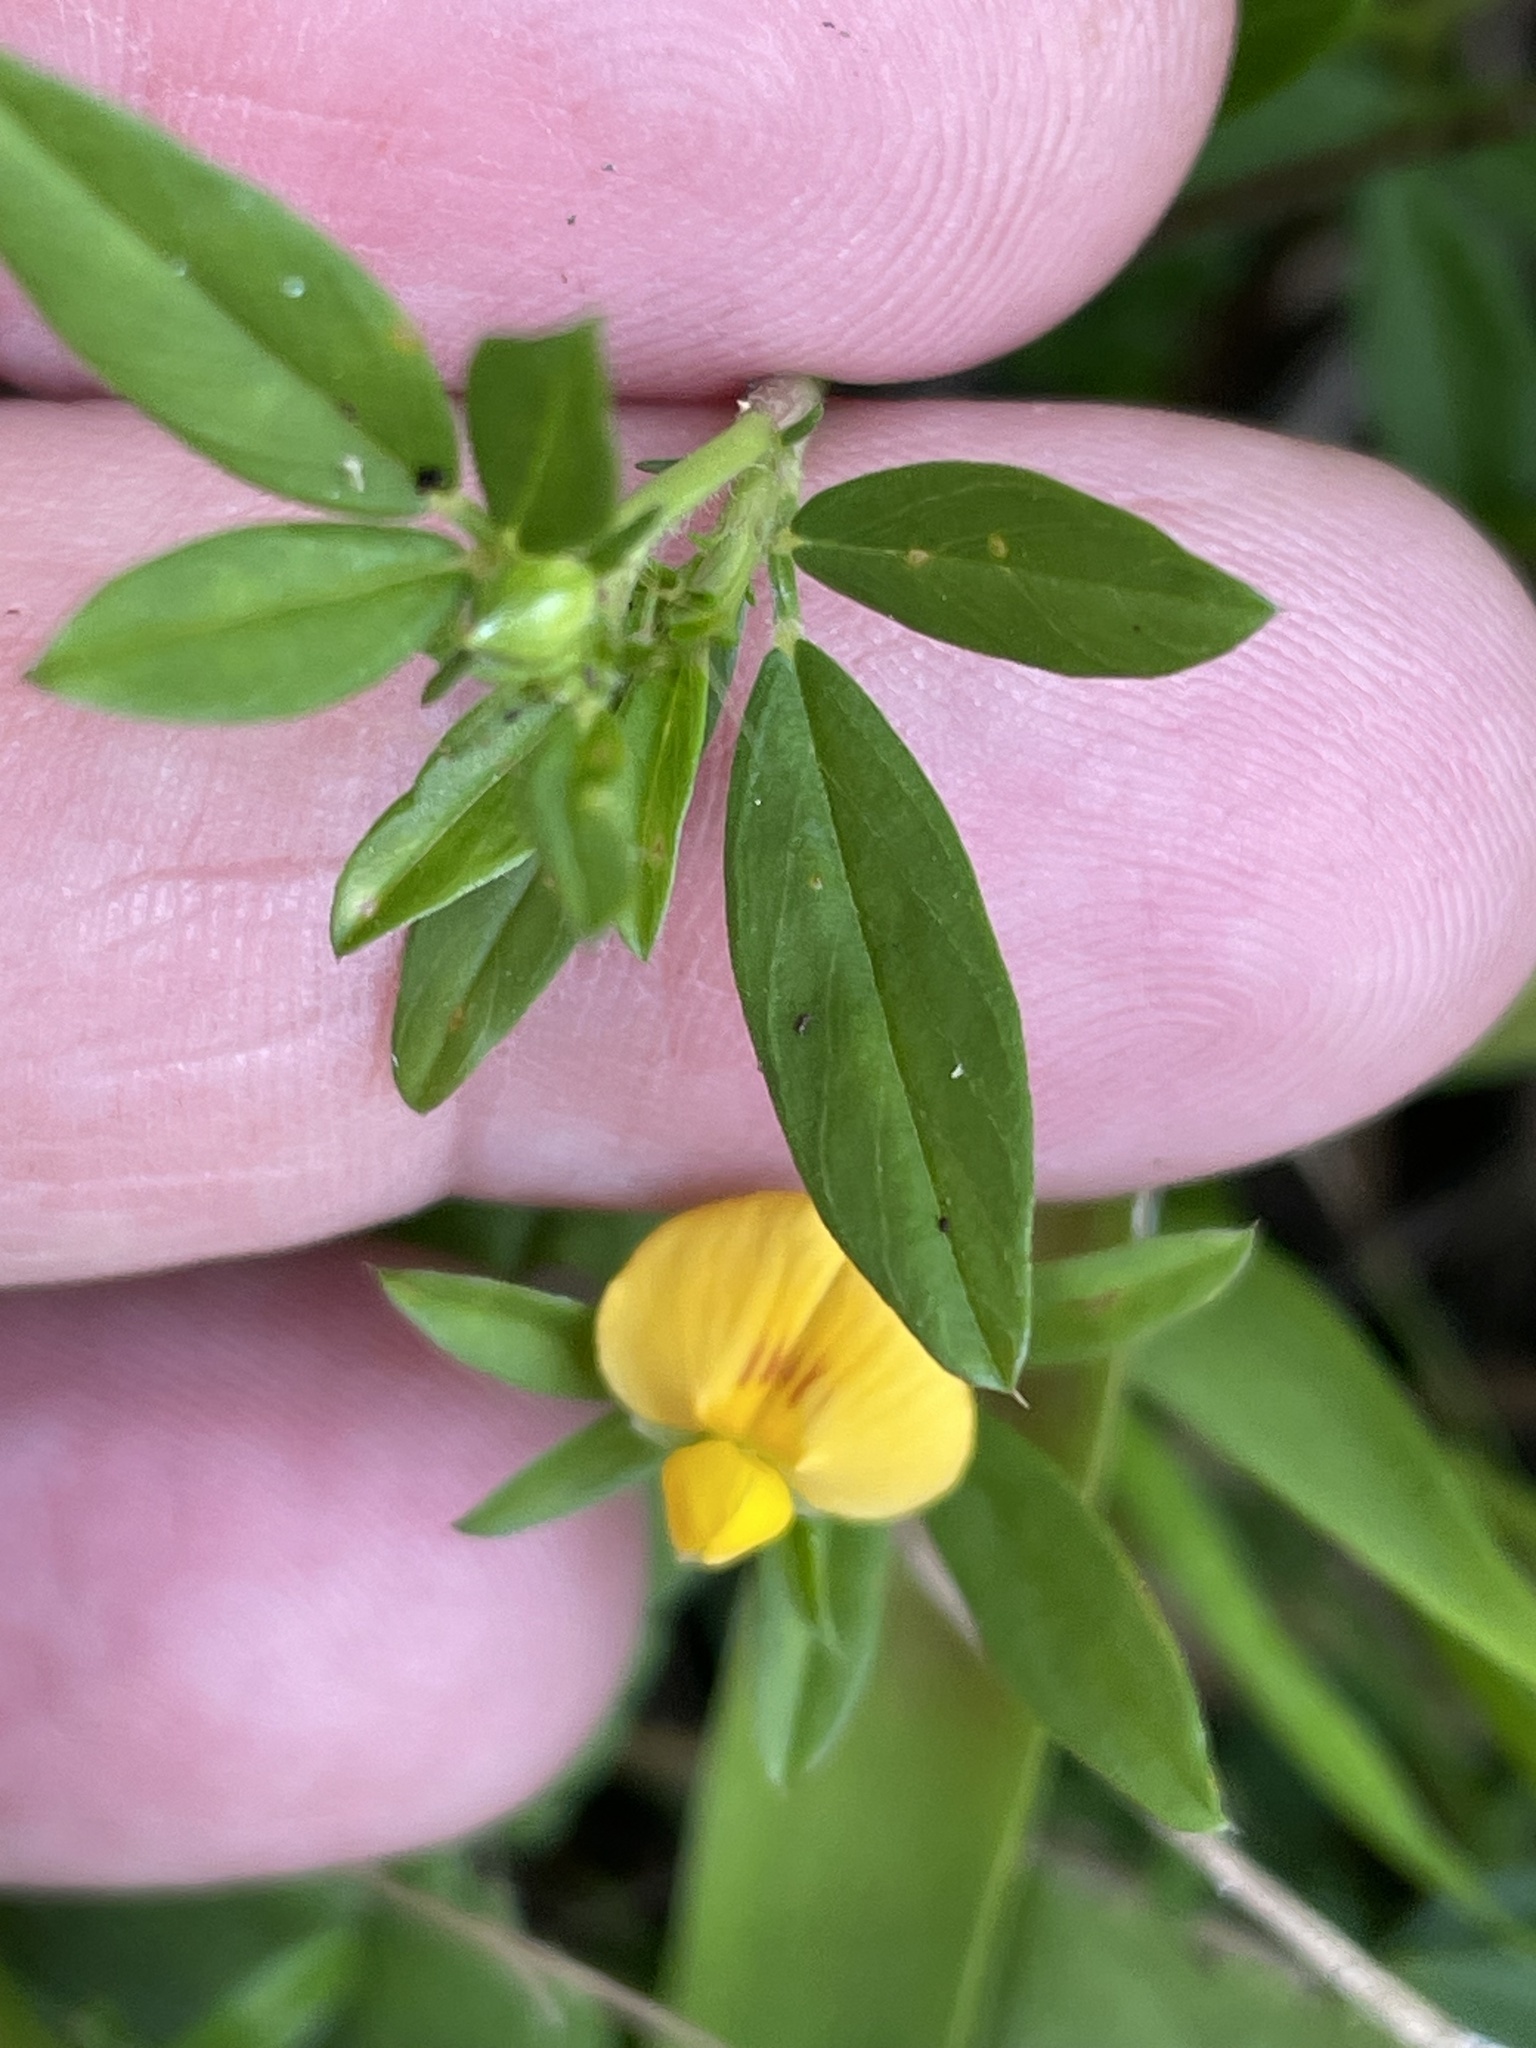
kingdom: Plantae
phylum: Tracheophyta
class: Magnoliopsida
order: Fabales
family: Fabaceae
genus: Stylosanthes
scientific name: Stylosanthes biflora
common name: Two-flower pencil-flower
